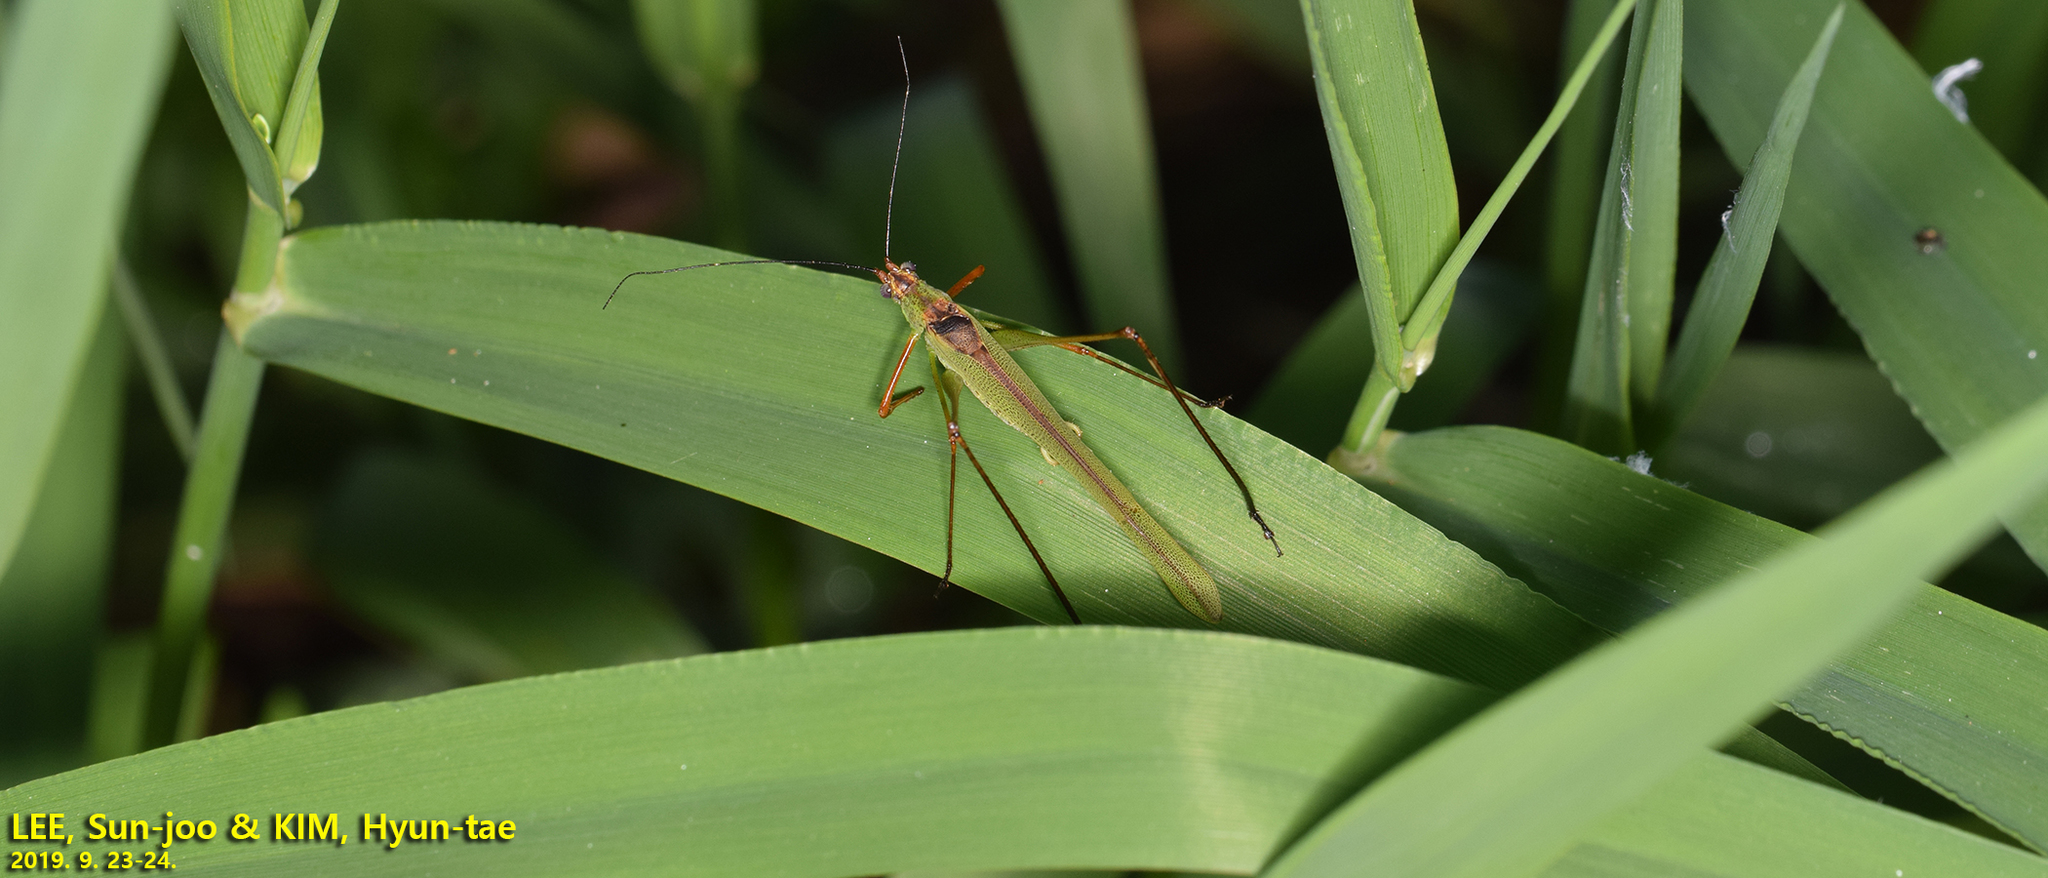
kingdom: Animalia
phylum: Arthropoda
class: Insecta
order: Orthoptera
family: Tettigoniidae
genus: Phaneroptera
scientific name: Phaneroptera nigroantennata
